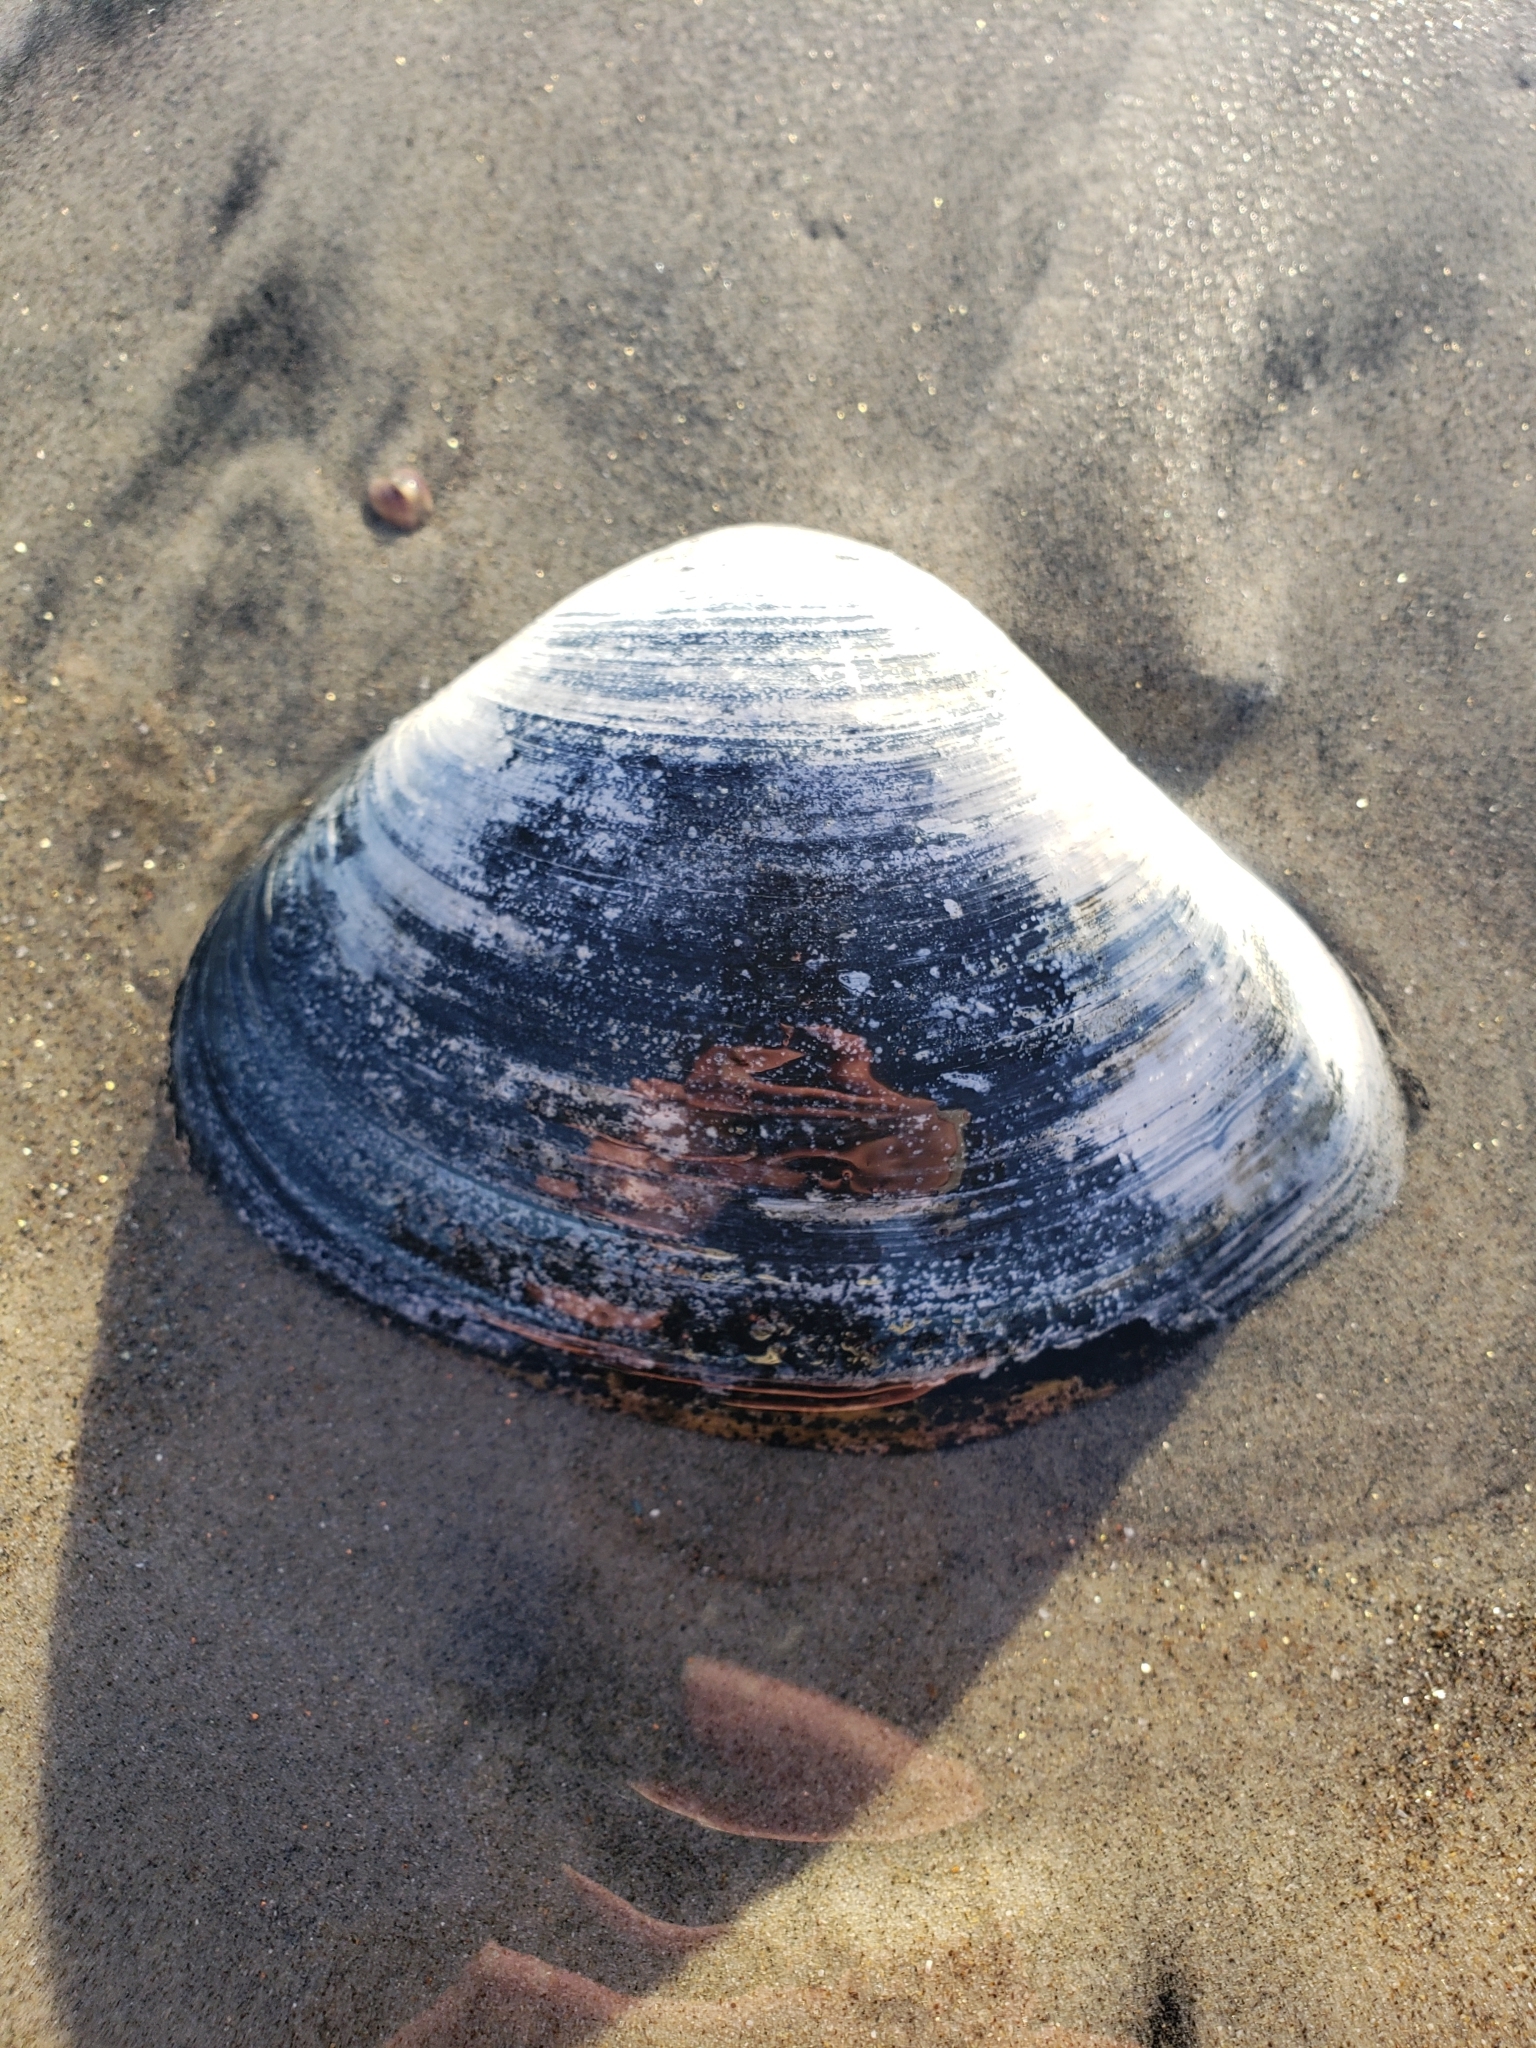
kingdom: Animalia
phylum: Mollusca
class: Bivalvia
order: Venerida
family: Veneridae
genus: Tivela
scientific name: Tivela stultorum
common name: Pismo clam
